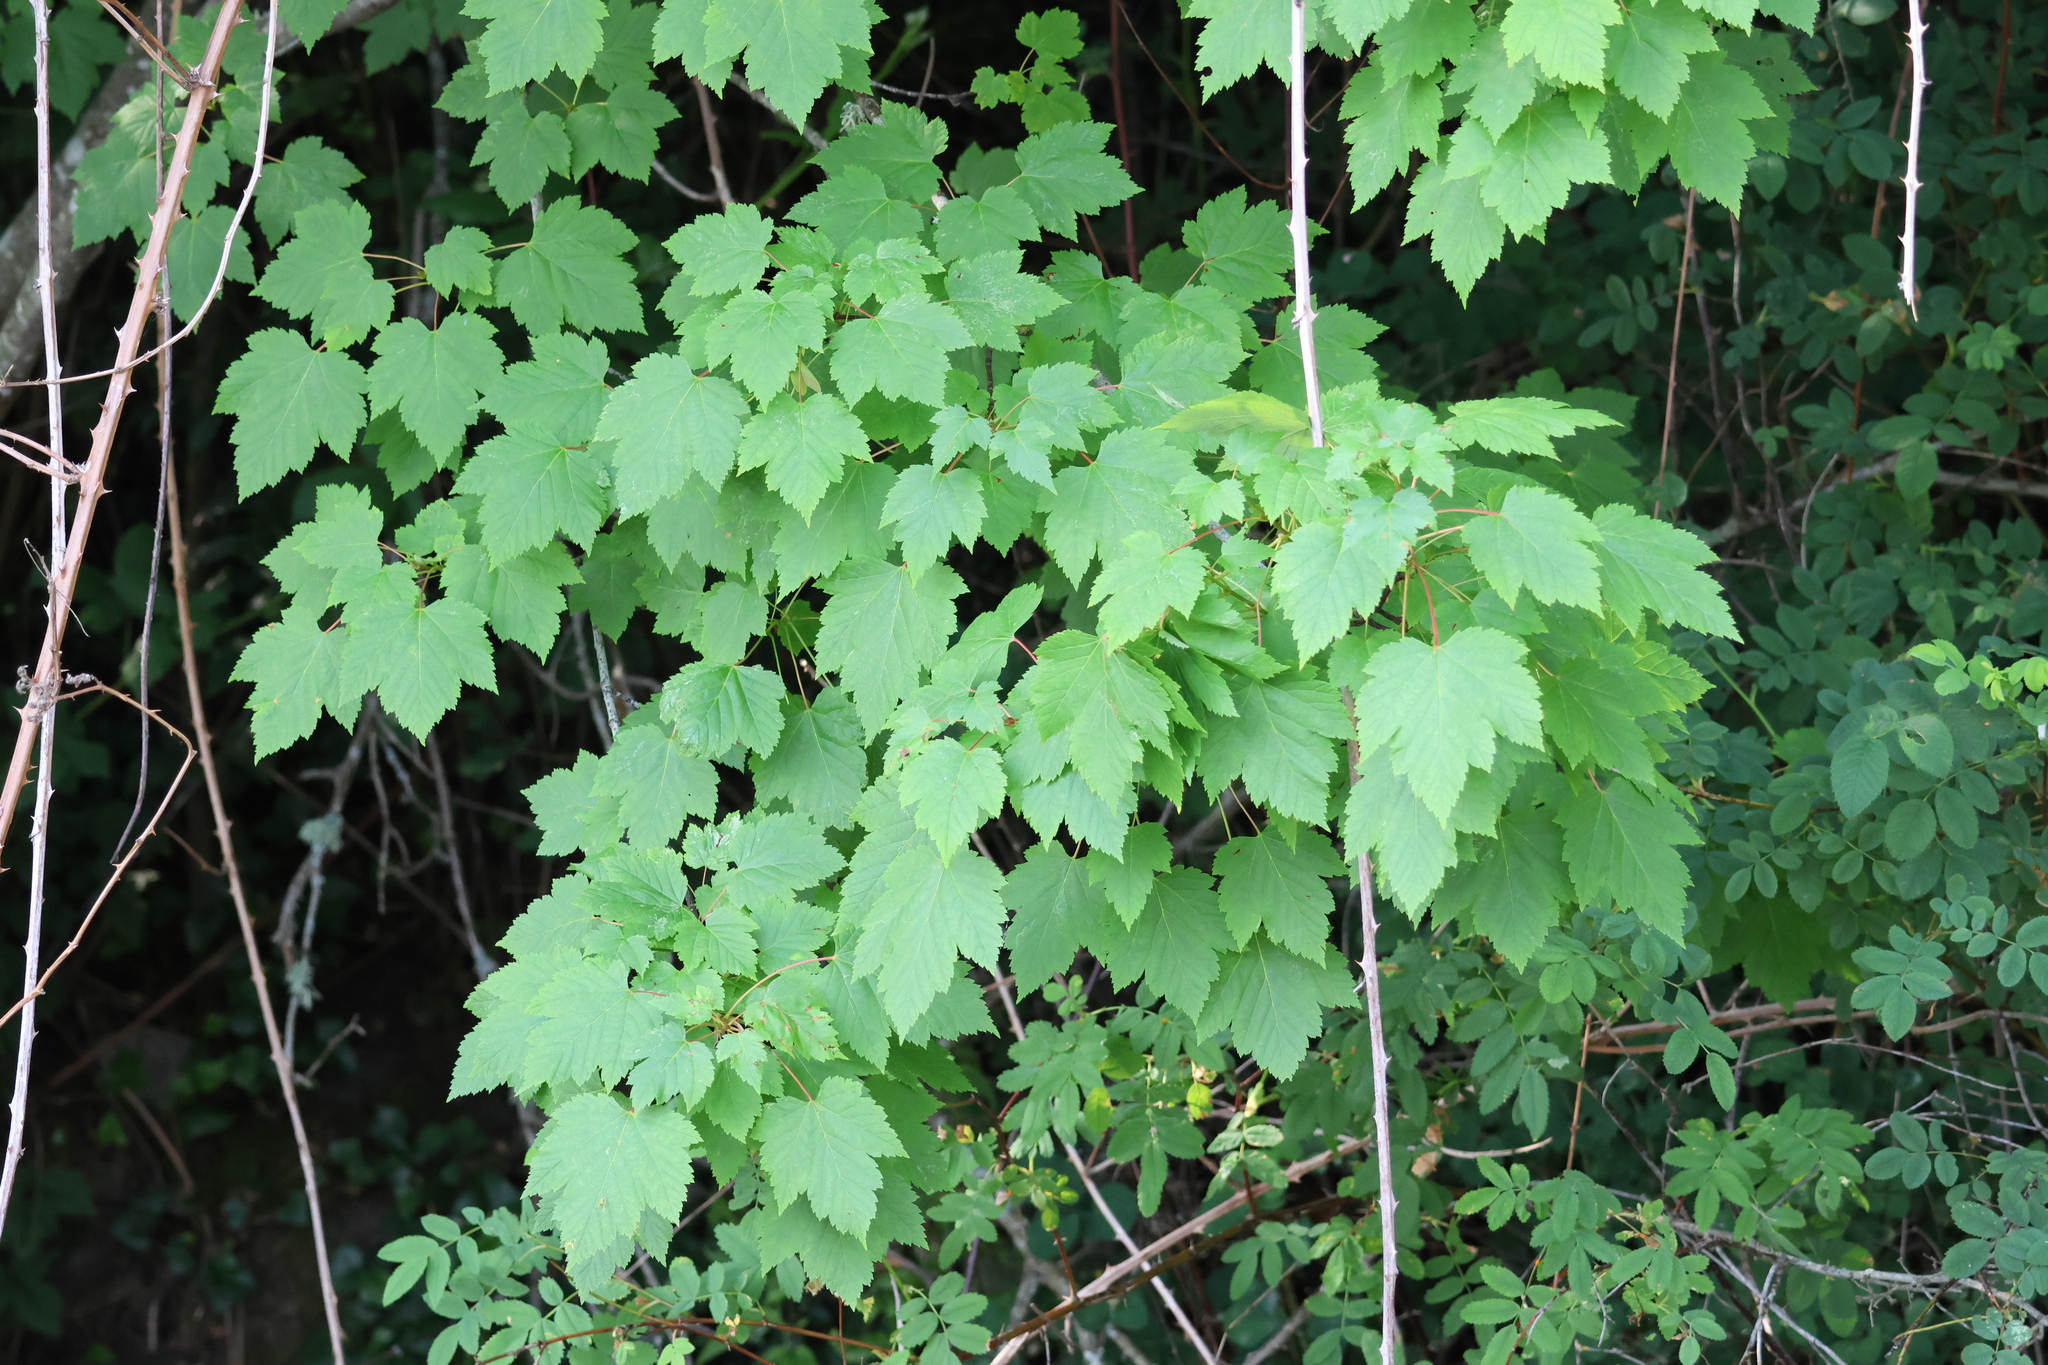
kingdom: Plantae
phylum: Tracheophyta
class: Magnoliopsida
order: Sapindales
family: Sapindaceae
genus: Acer
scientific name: Acer glabrum
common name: Rocky mountain maple
